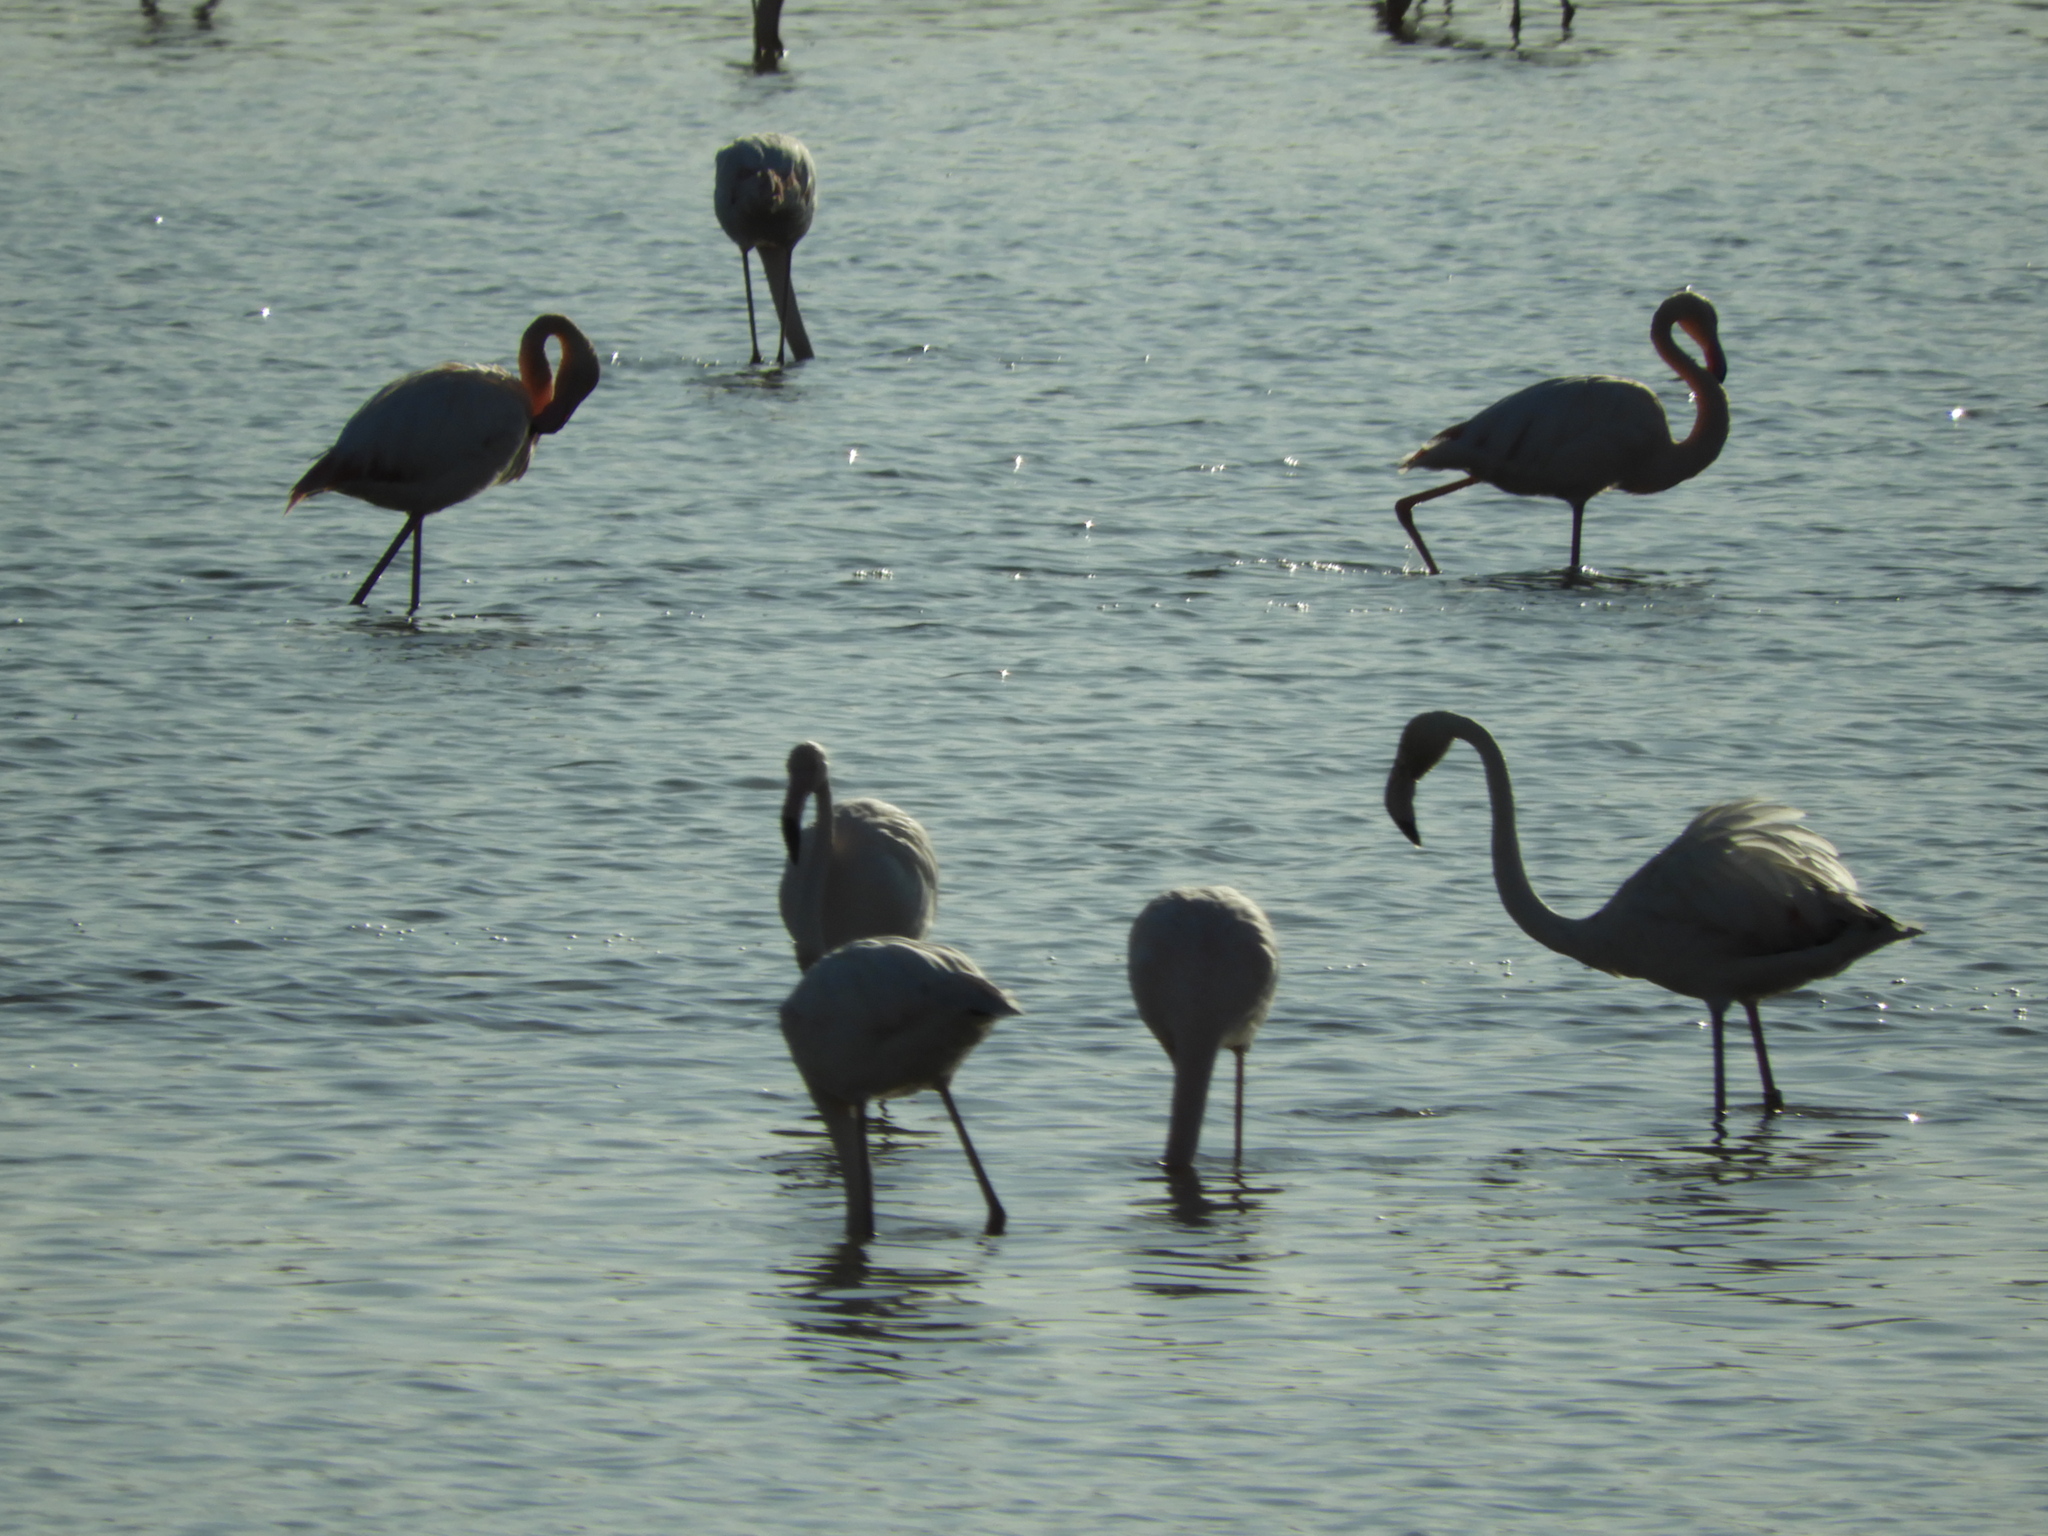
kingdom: Animalia
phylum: Chordata
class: Aves
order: Phoenicopteriformes
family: Phoenicopteridae
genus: Phoenicopterus
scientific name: Phoenicopterus roseus
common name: Greater flamingo
